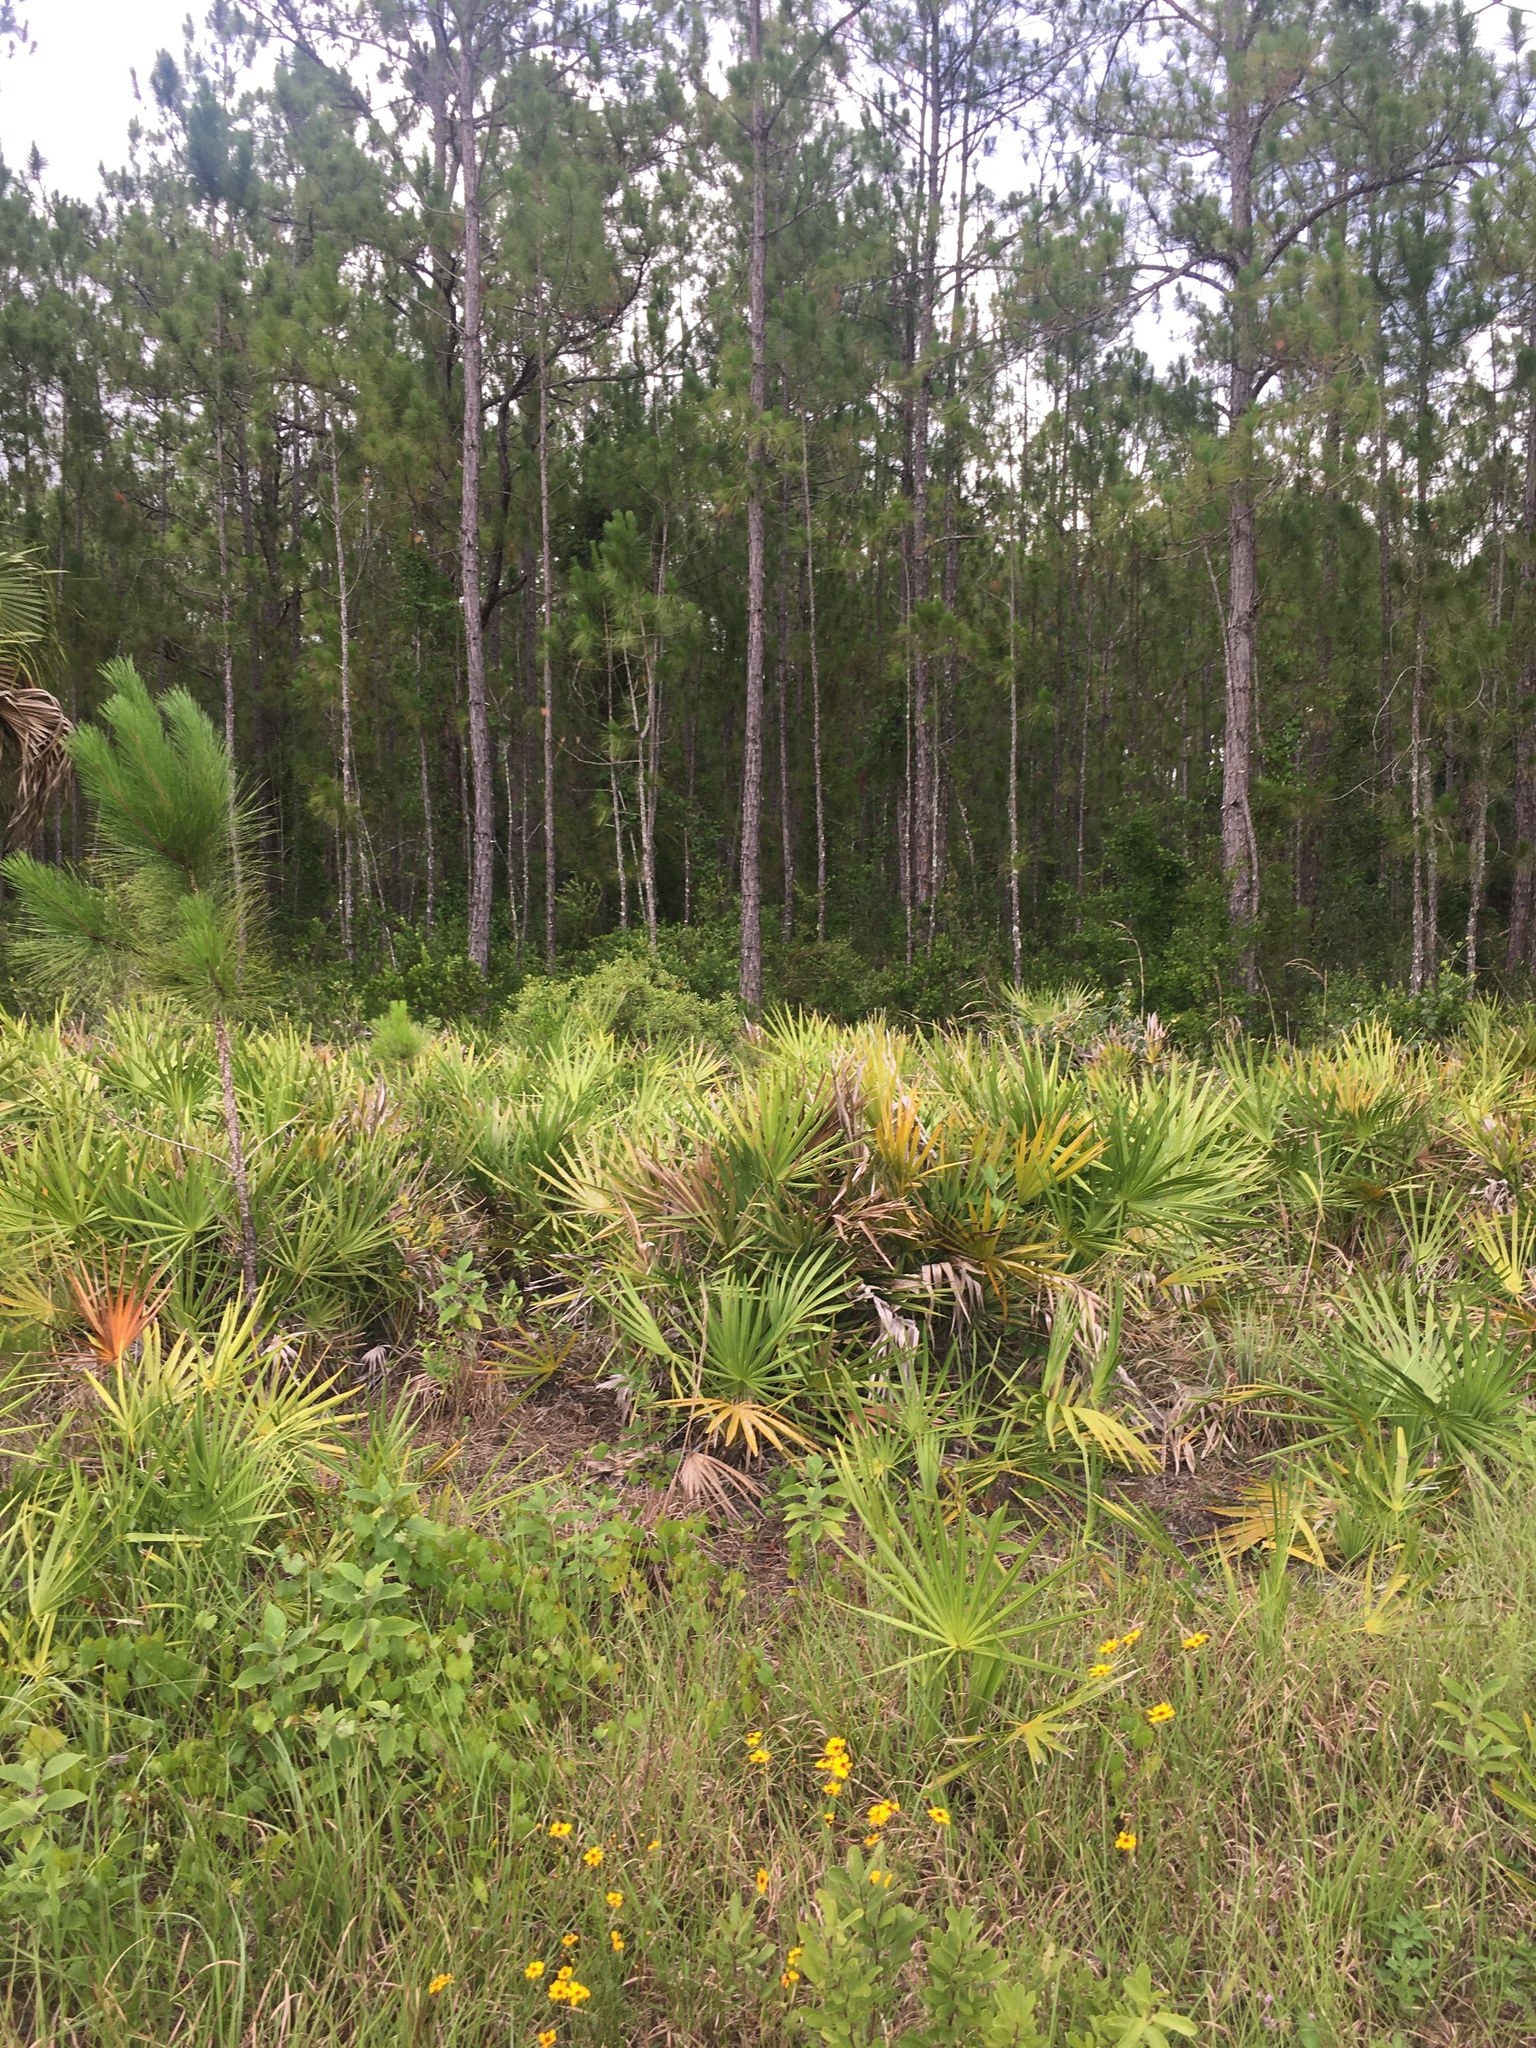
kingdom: Plantae
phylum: Tracheophyta
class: Liliopsida
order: Arecales
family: Arecaceae
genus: Serenoa
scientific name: Serenoa repens
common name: Saw-palmetto
